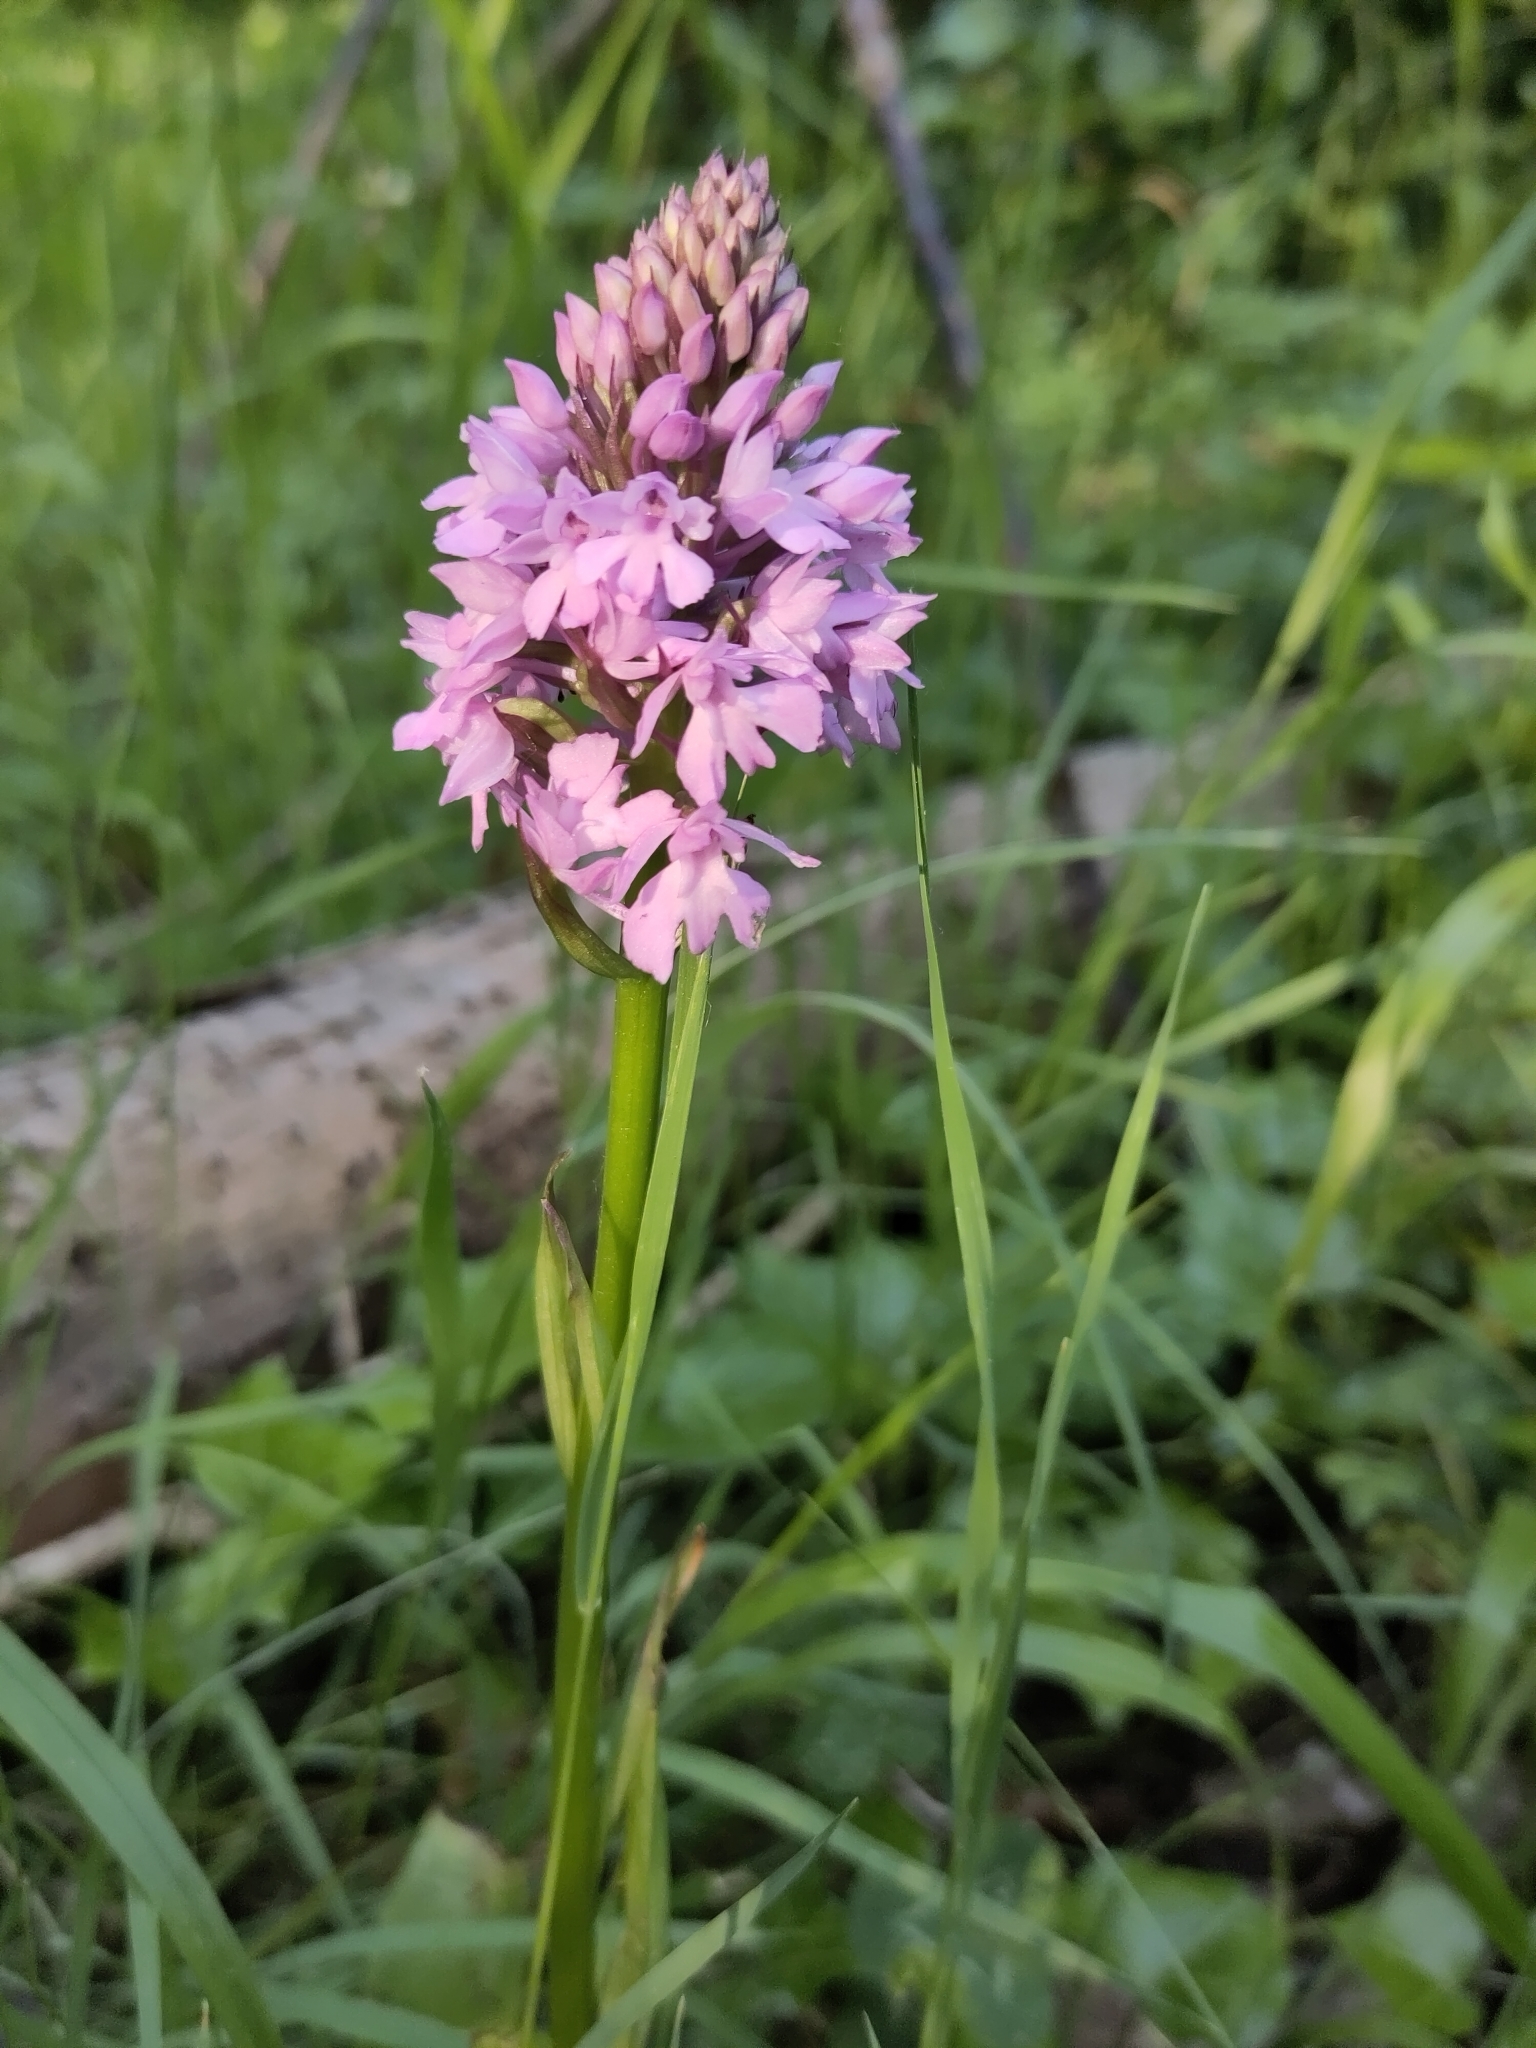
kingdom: Plantae
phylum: Tracheophyta
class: Liliopsida
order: Asparagales
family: Orchidaceae
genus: Anacamptis
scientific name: Anacamptis pyramidalis
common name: Pyramidal orchid
